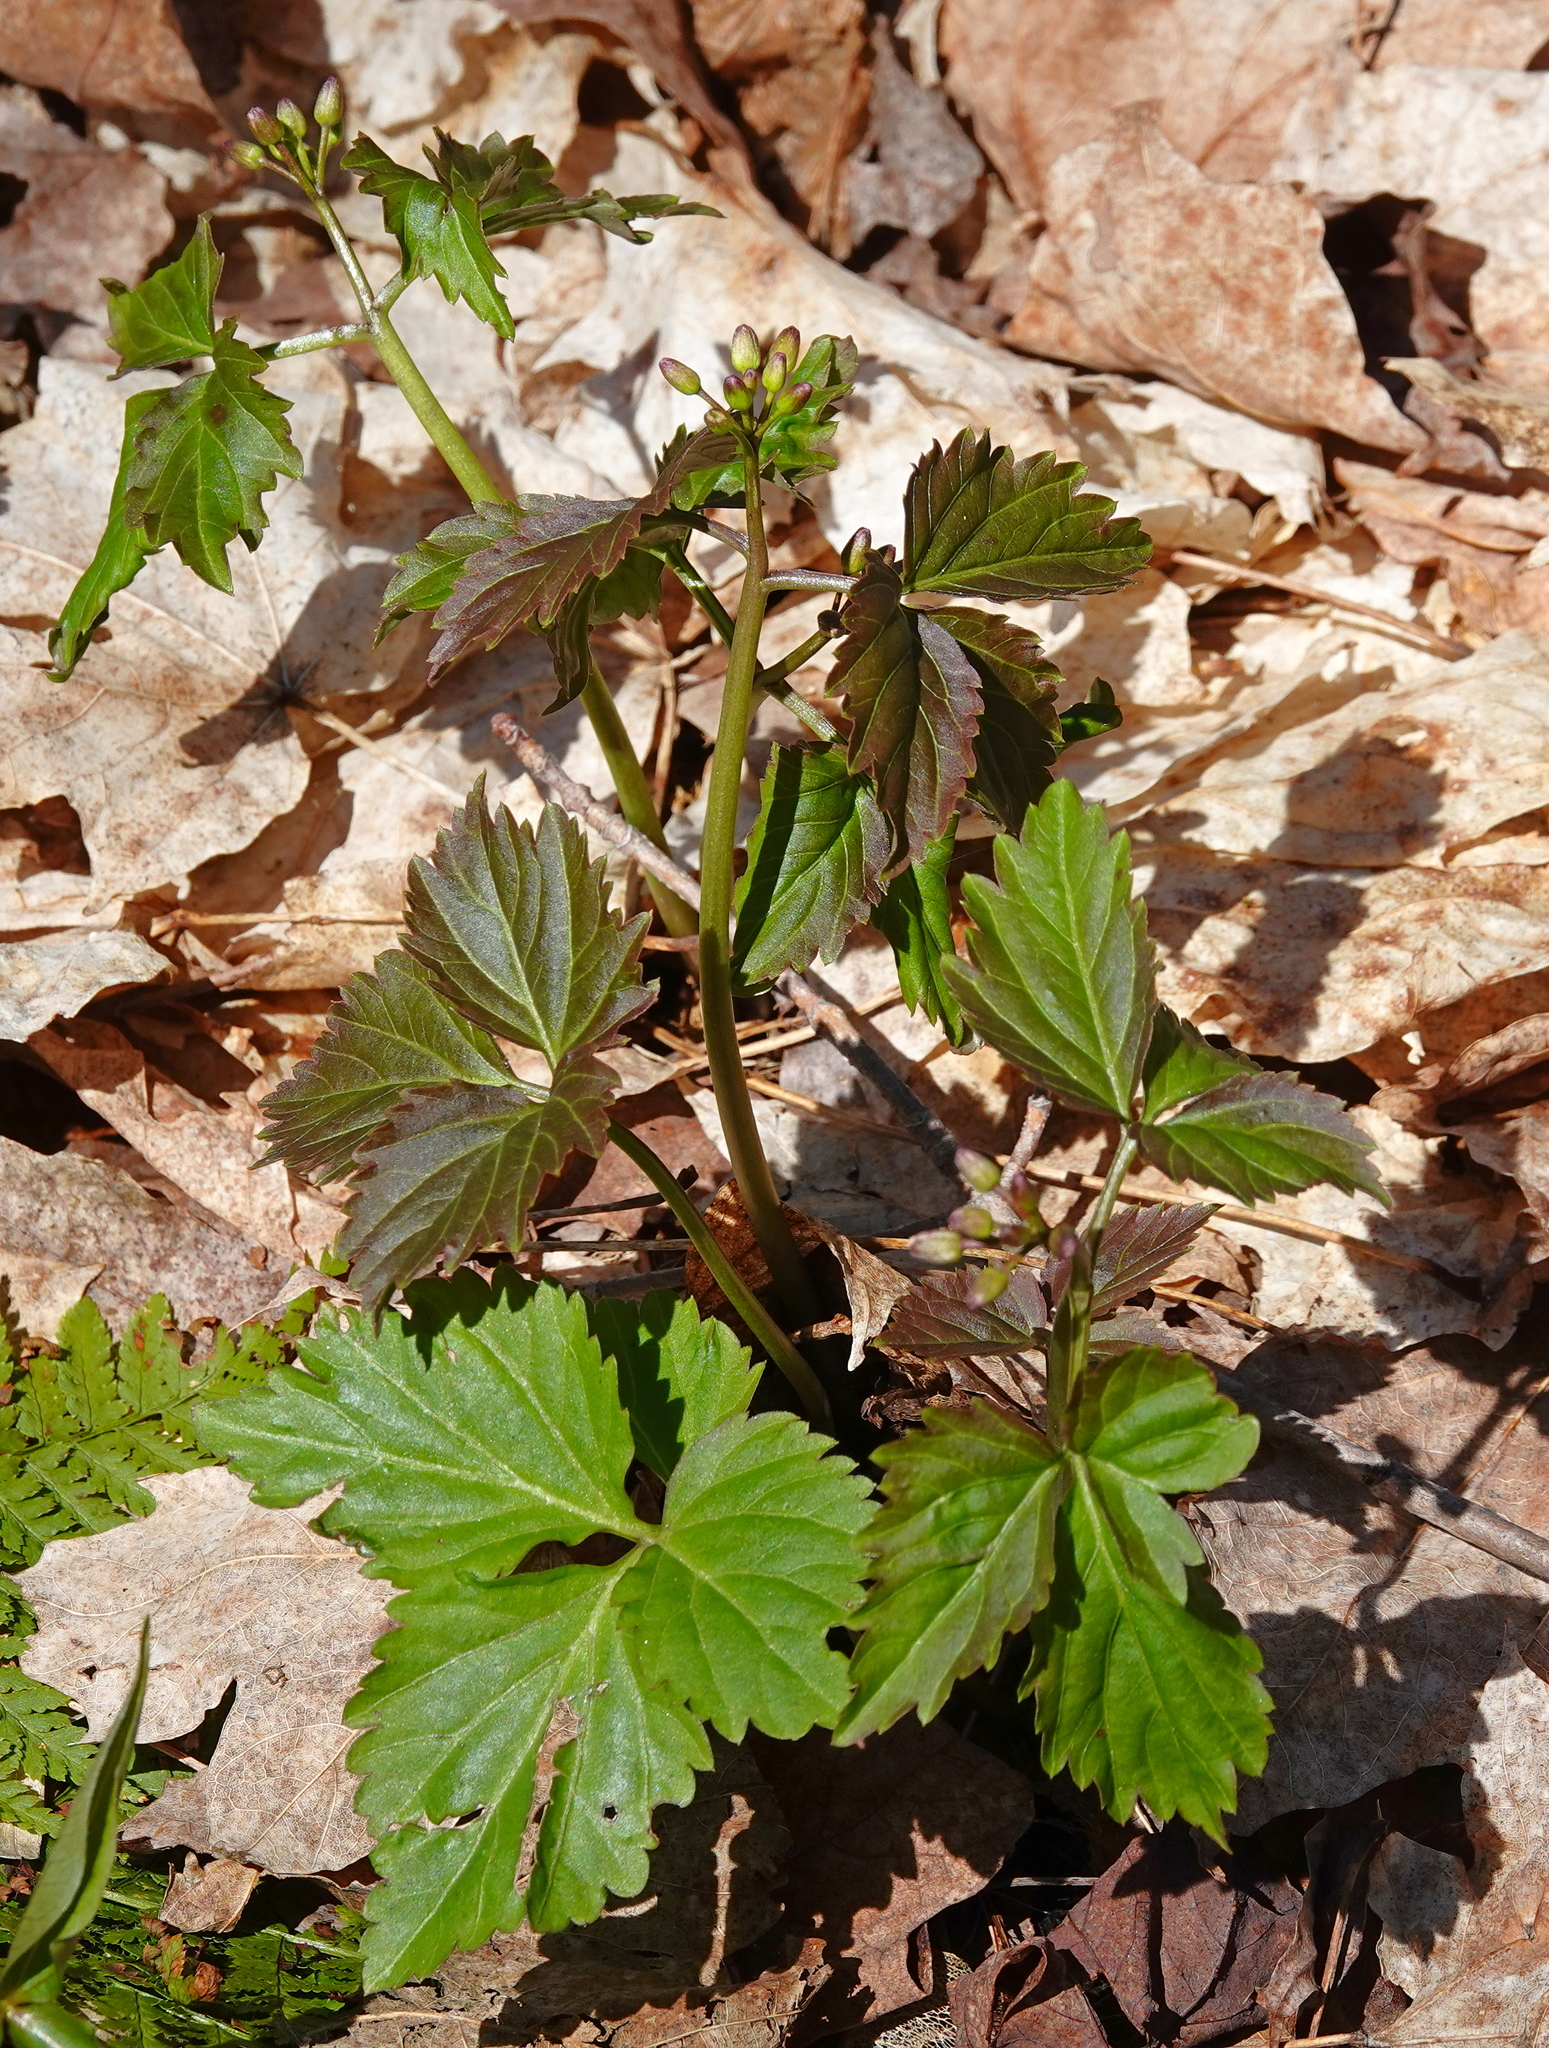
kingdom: Plantae
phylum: Tracheophyta
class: Magnoliopsida
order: Brassicales
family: Brassicaceae
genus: Cardamine
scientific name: Cardamine diphylla
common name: Broad-leaved toothwort
